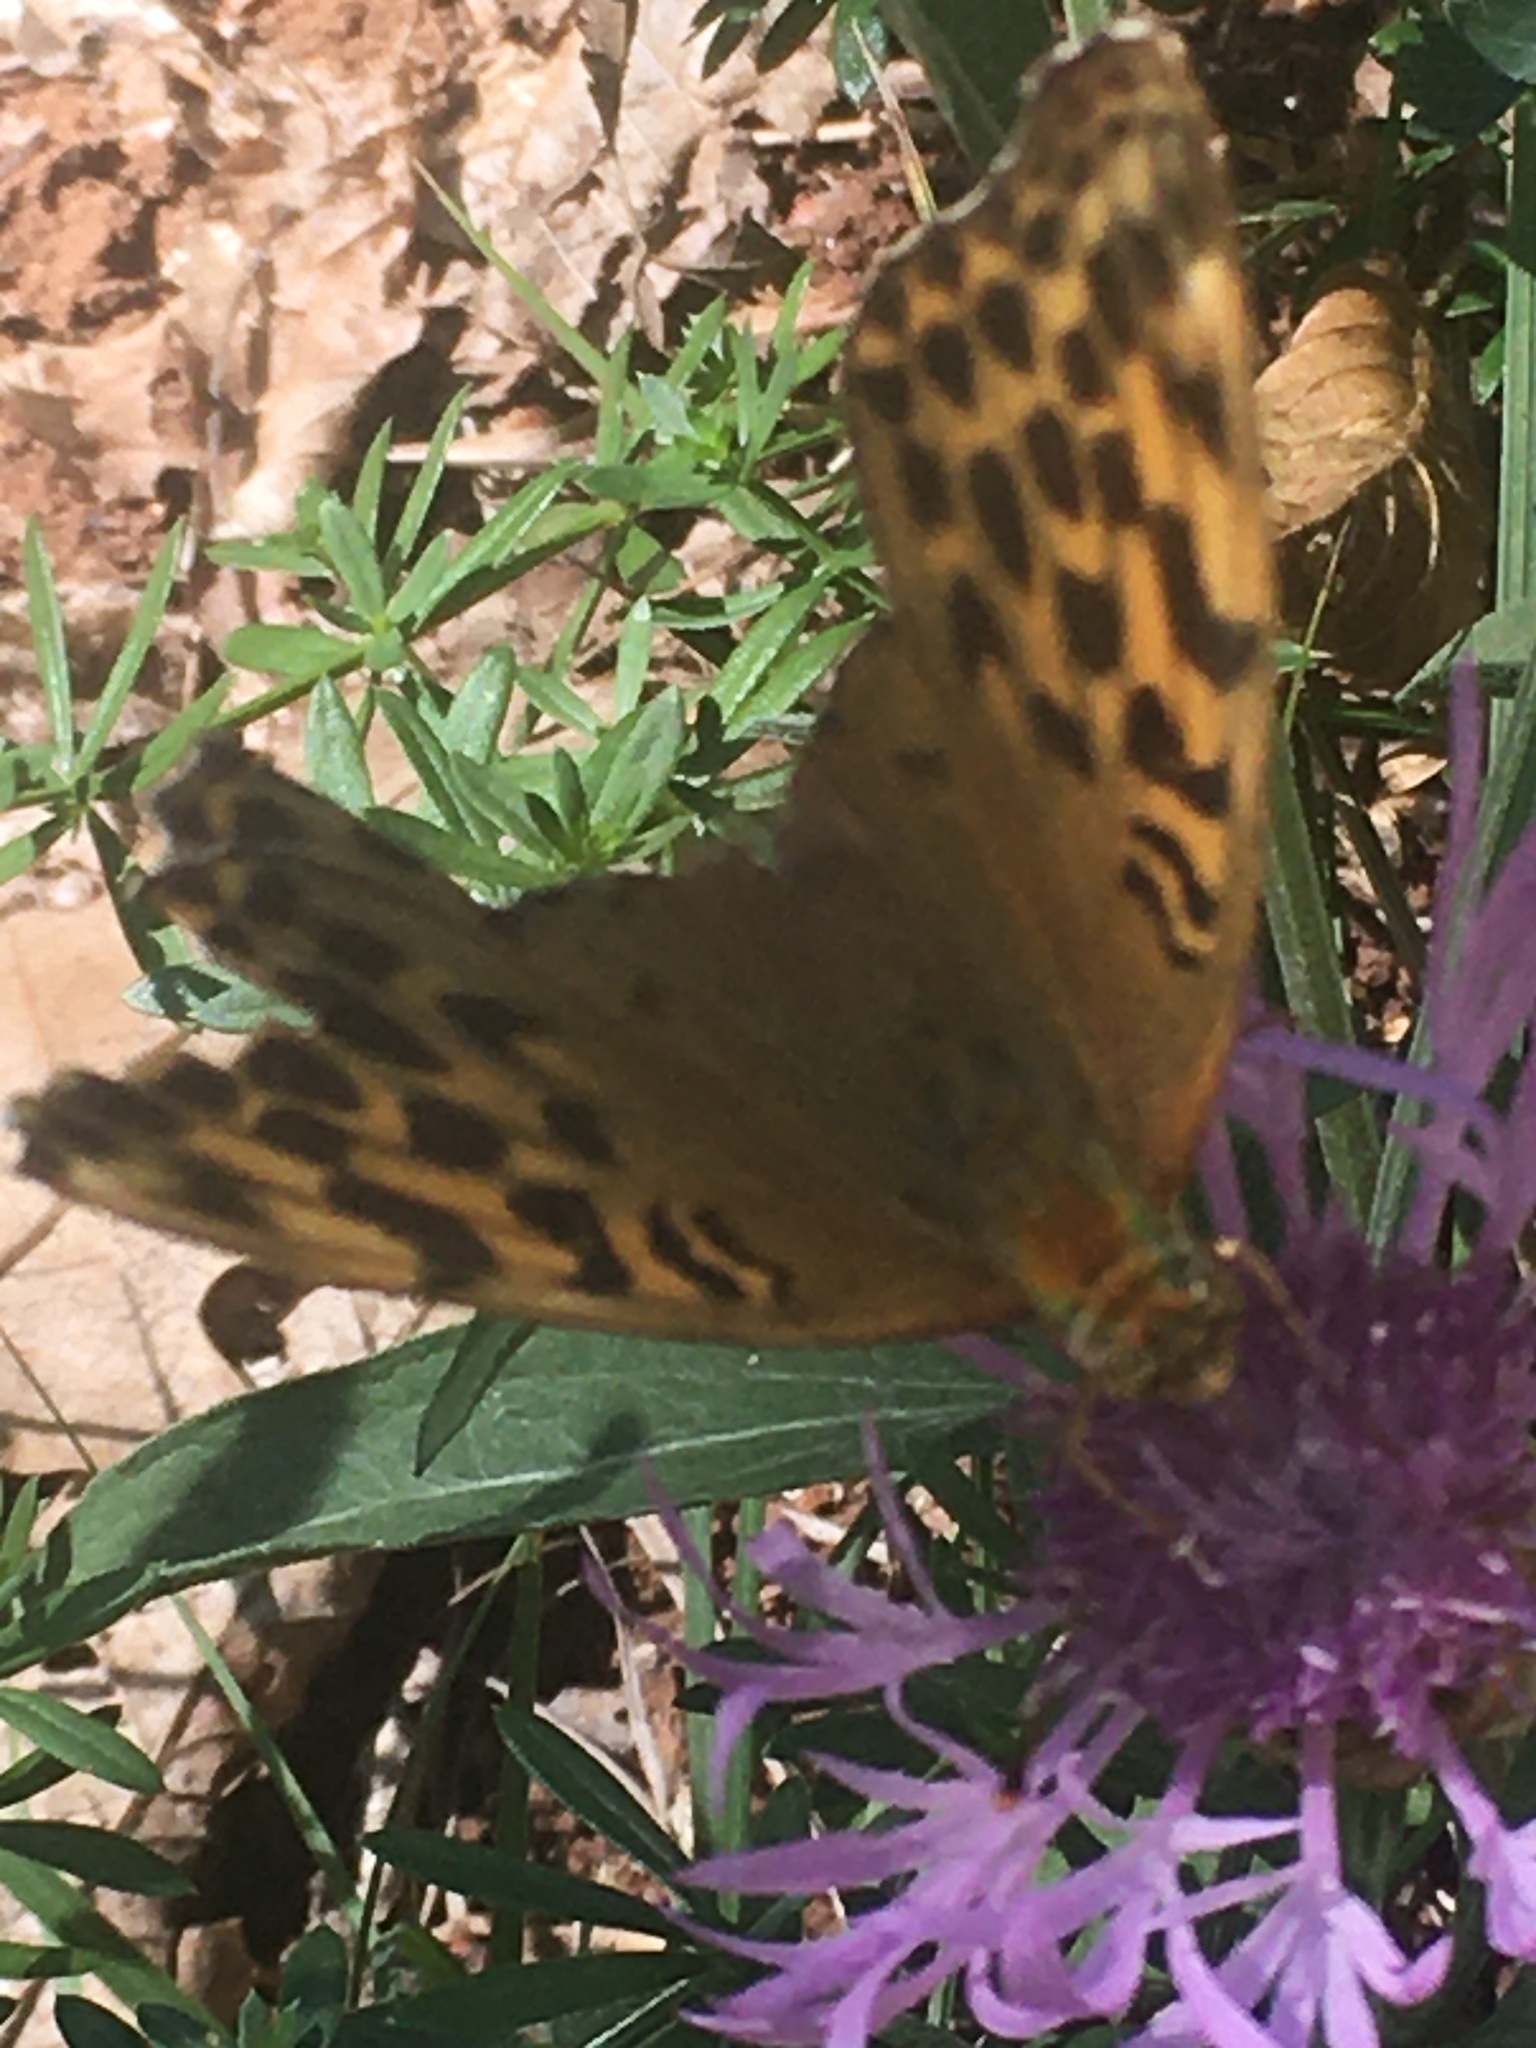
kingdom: Animalia
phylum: Arthropoda
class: Insecta
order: Lepidoptera
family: Nymphalidae
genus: Argynnis
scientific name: Argynnis paphia
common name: Silver-washed fritillary
